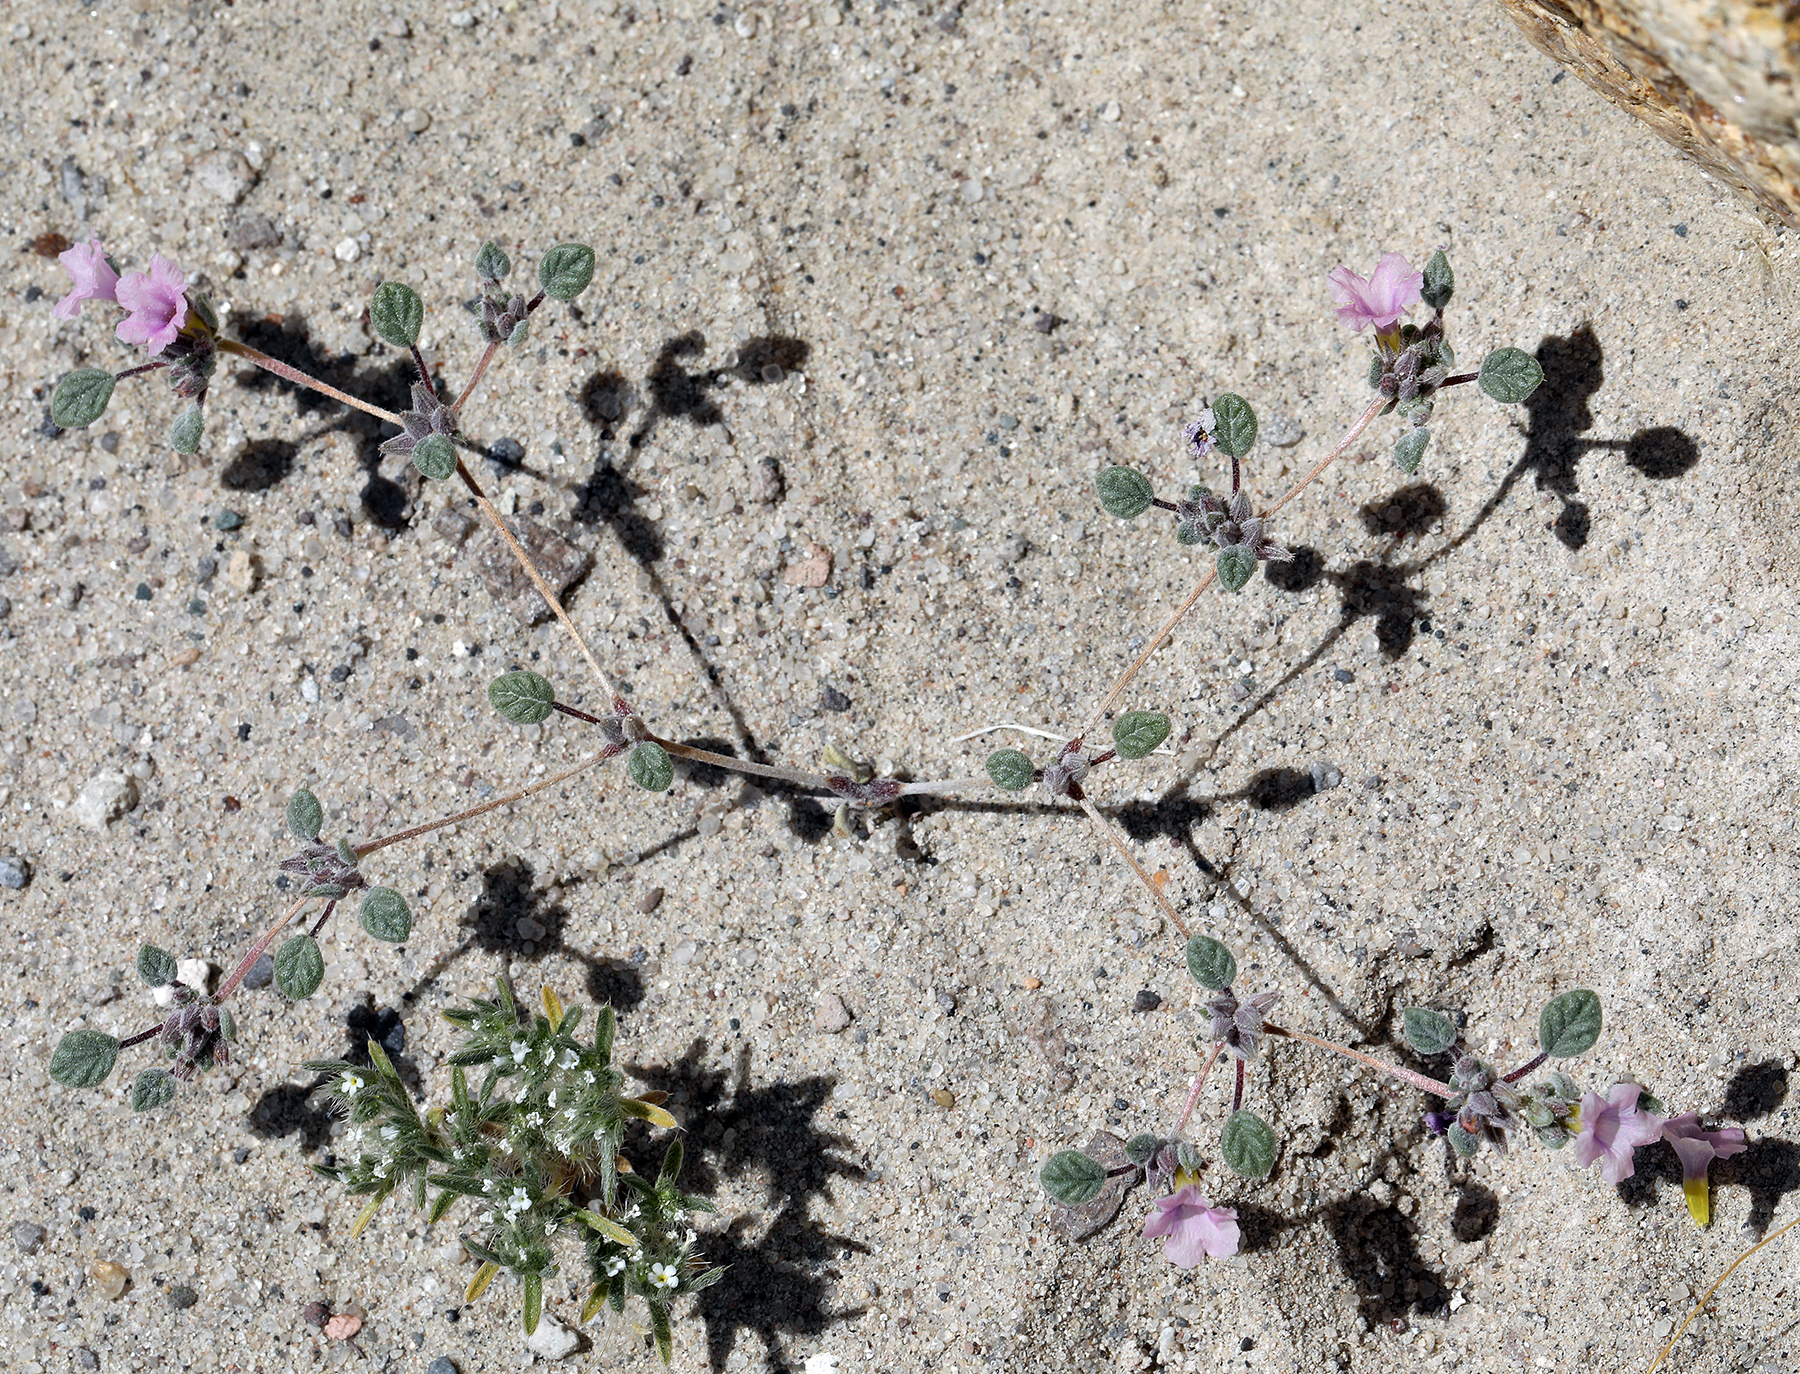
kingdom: Plantae
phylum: Tracheophyta
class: Magnoliopsida
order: Boraginales
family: Ehretiaceae
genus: Tiquilia
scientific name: Tiquilia nuttallii
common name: Rosette tiquilia
